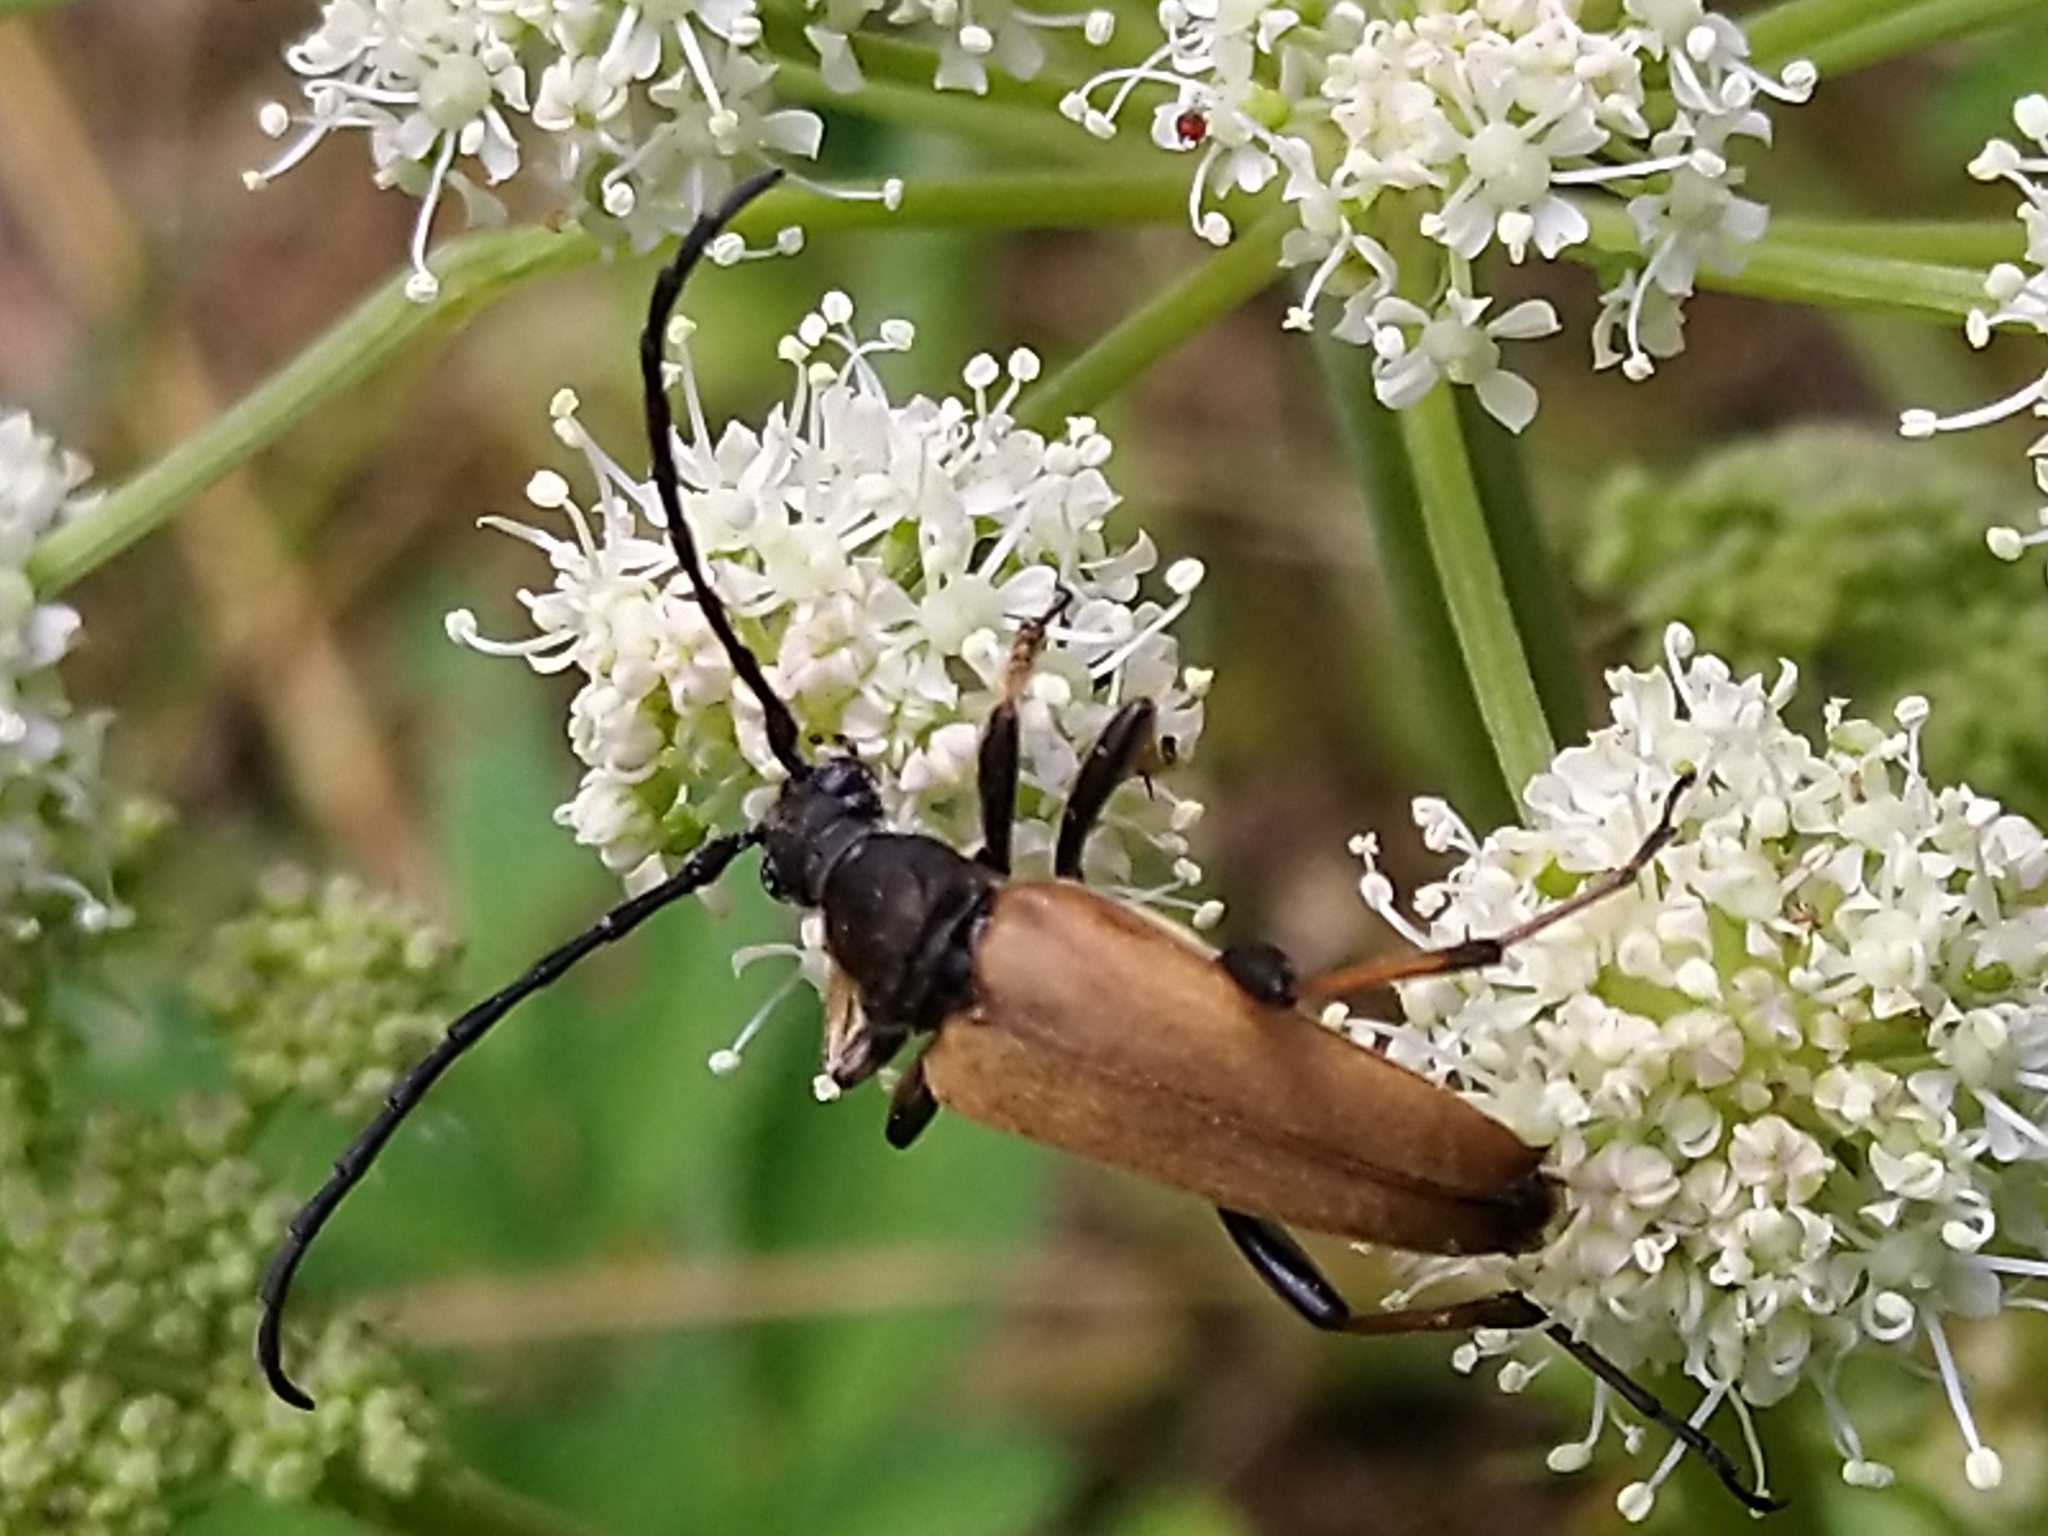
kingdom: Animalia
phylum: Arthropoda
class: Insecta
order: Coleoptera
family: Cerambycidae
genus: Stictoleptura
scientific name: Stictoleptura rubra
